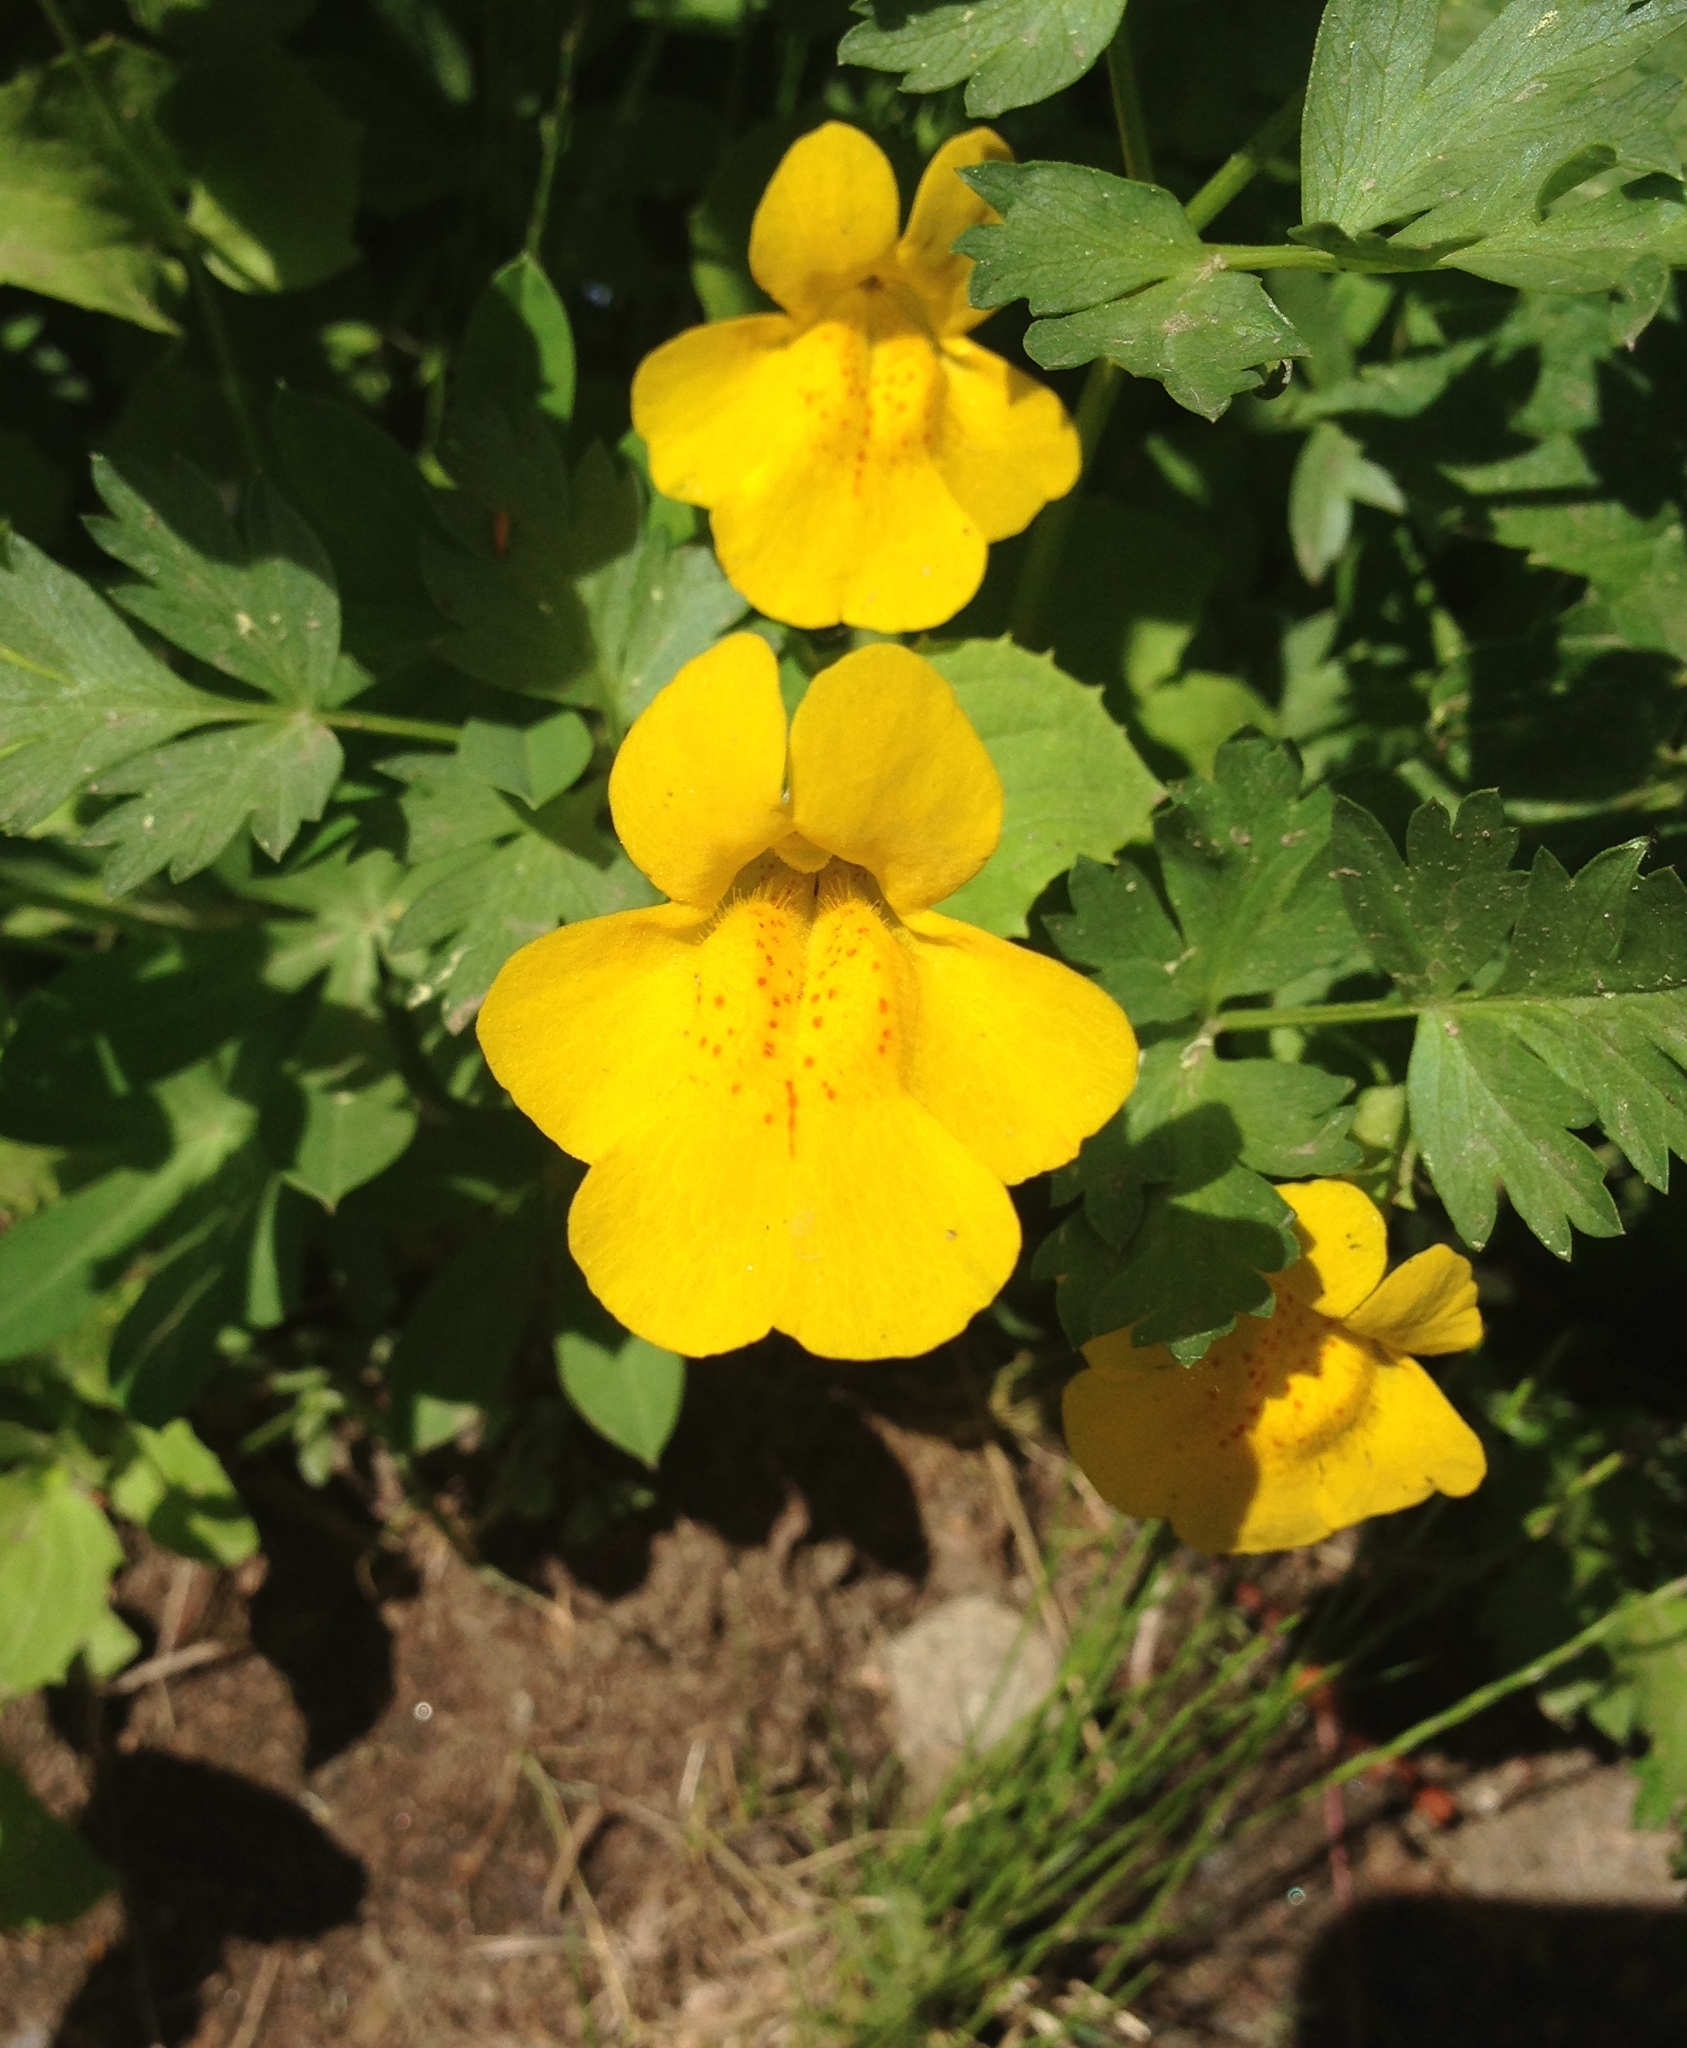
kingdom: Plantae
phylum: Tracheophyta
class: Magnoliopsida
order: Lamiales
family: Phrymaceae
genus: Erythranthe
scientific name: Erythranthe tilingii
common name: Subalpine monkey-flower
